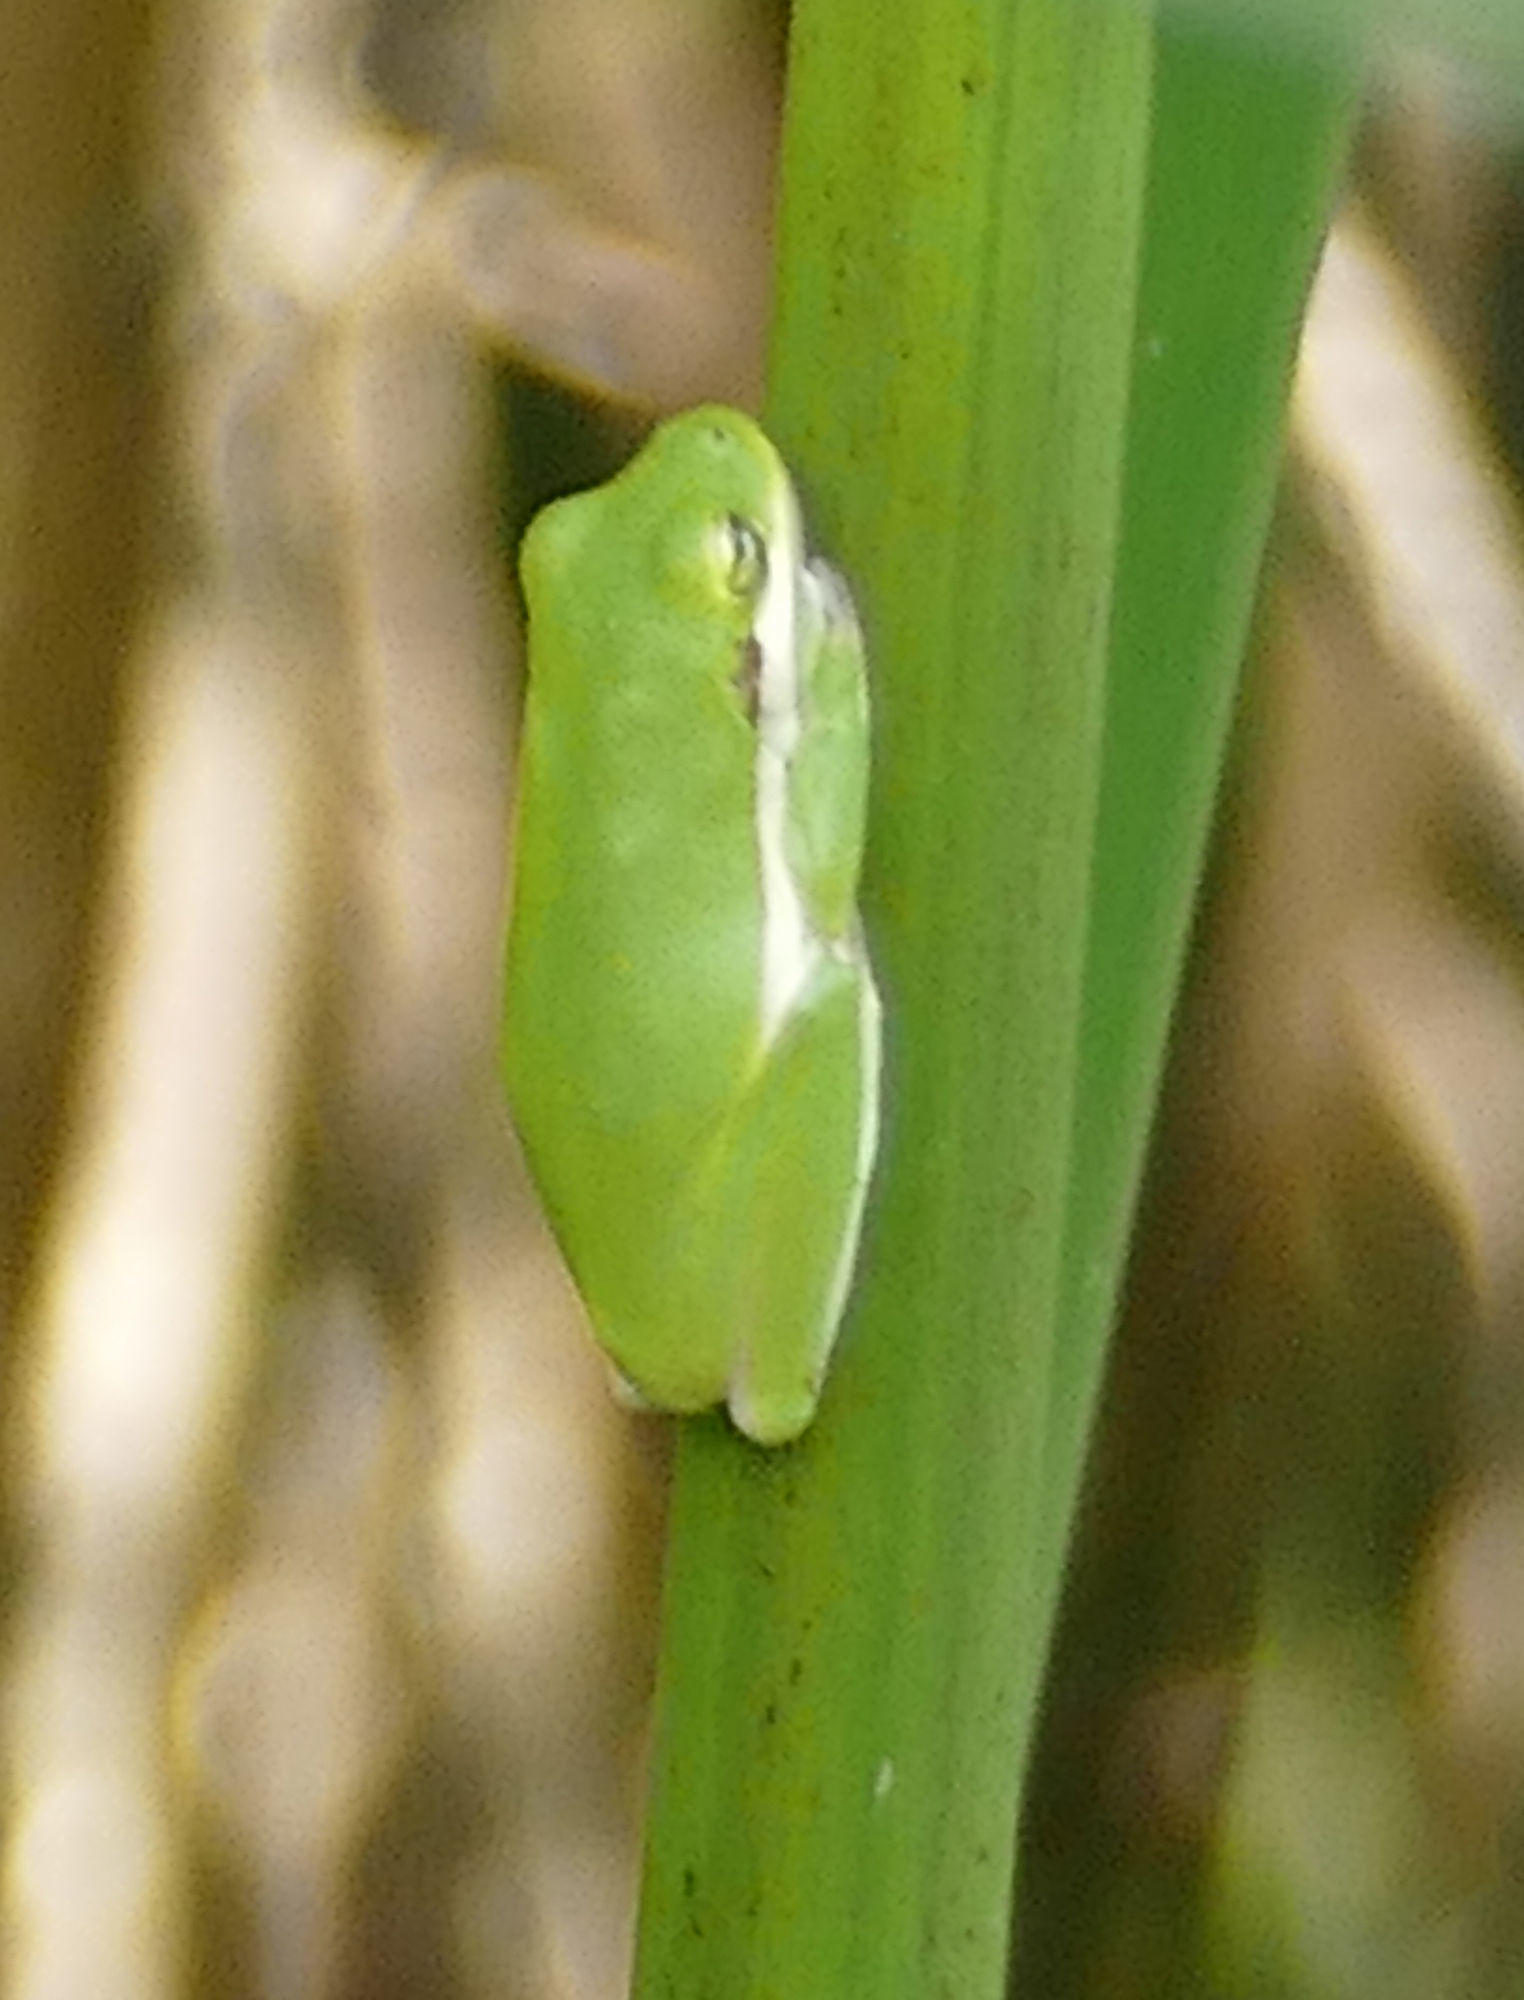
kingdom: Animalia
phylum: Chordata
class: Amphibia
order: Anura
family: Hylidae
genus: Dryophytes
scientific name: Dryophytes cinereus
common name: Green treefrog
